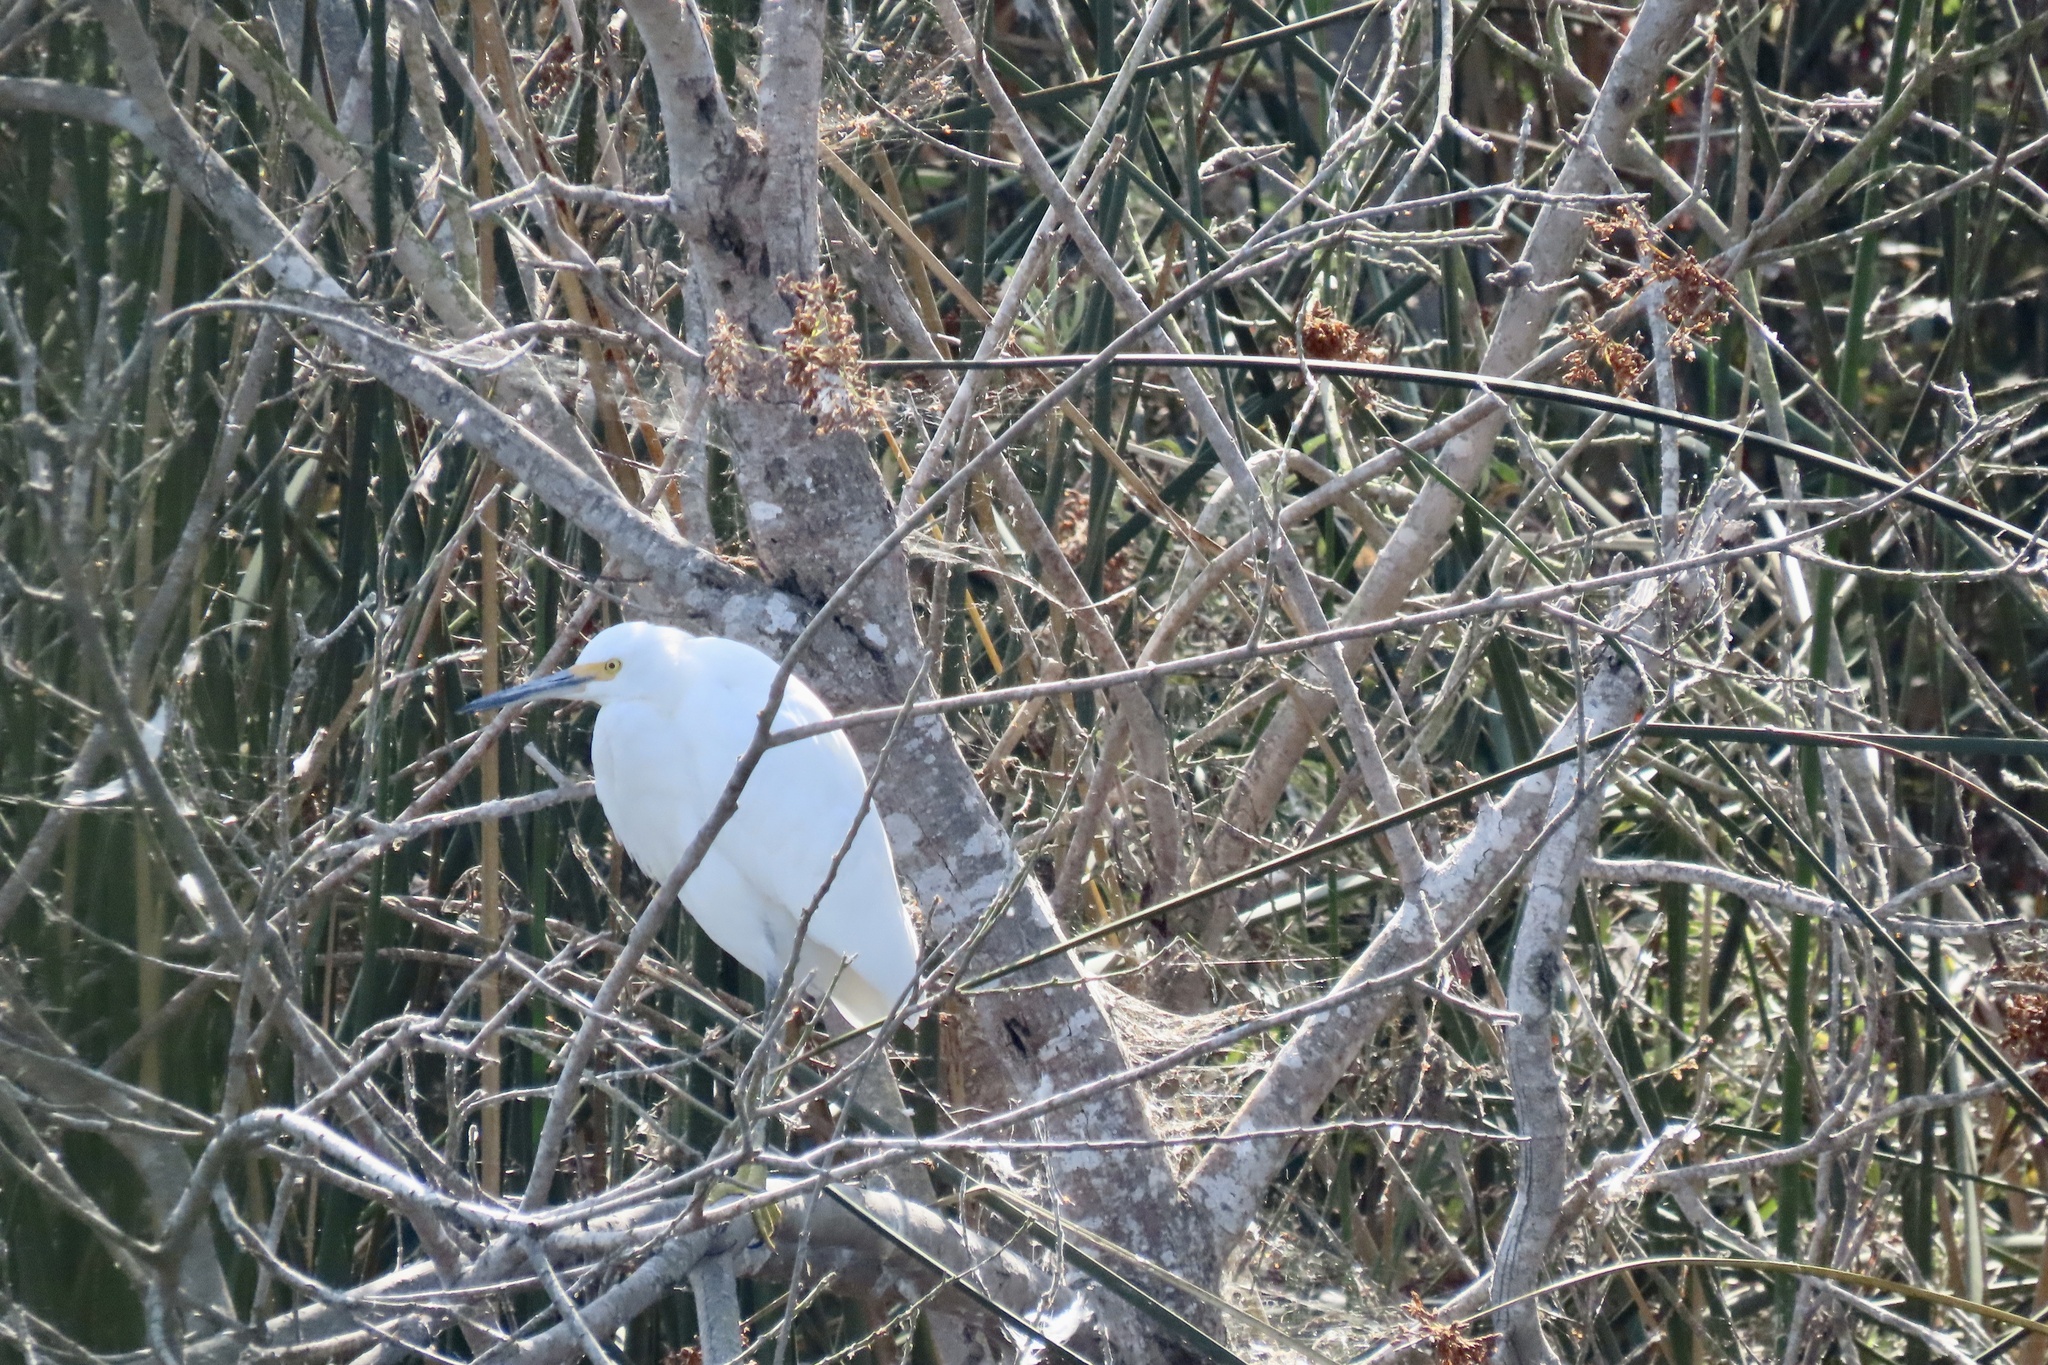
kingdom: Animalia
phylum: Chordata
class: Aves
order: Pelecaniformes
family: Ardeidae
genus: Egretta
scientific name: Egretta thula
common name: Snowy egret
